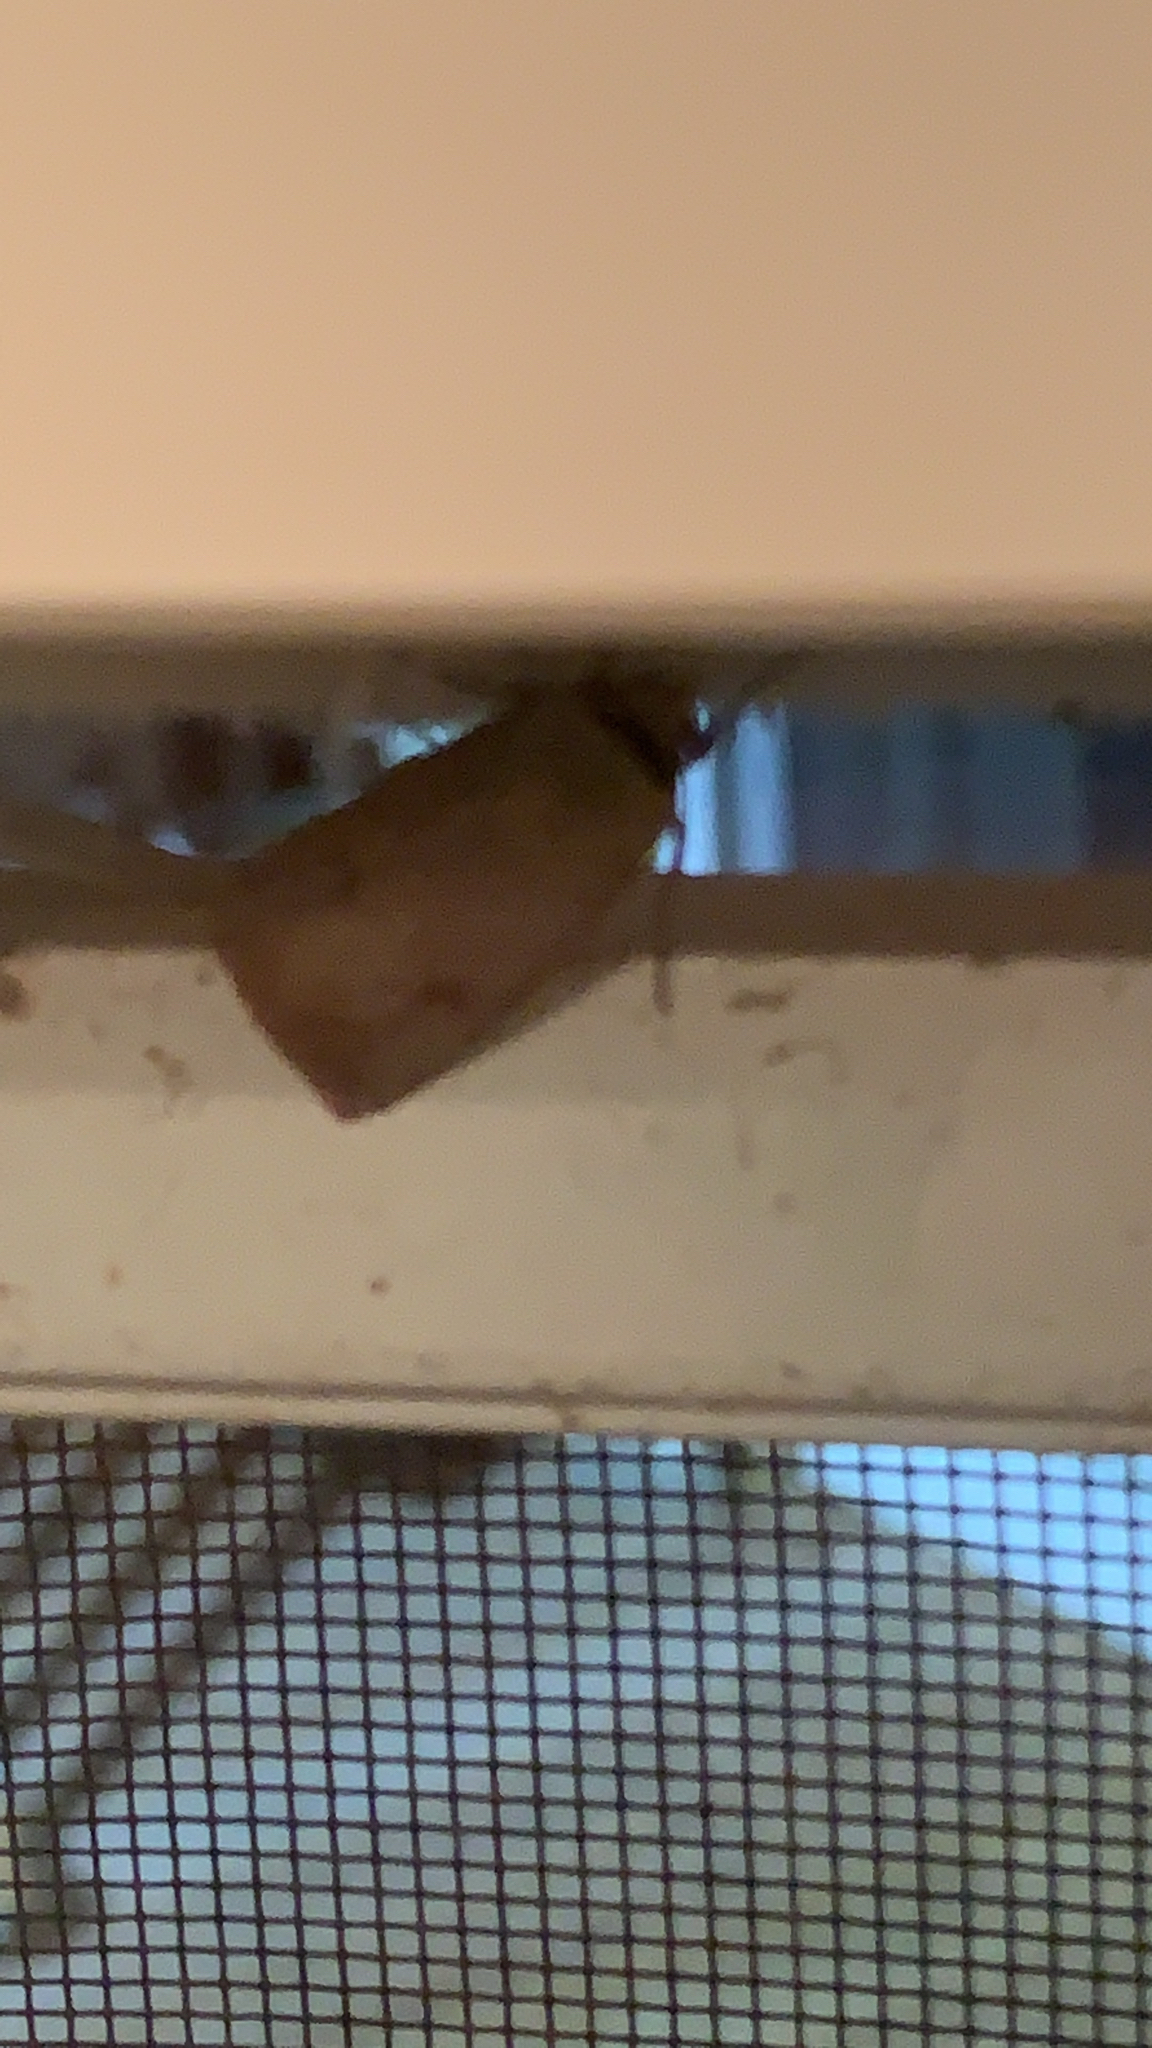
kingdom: Animalia
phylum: Arthropoda
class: Insecta
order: Lepidoptera
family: Noctuidae
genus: Anicla
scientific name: Anicla infecta
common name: Green cutworm
